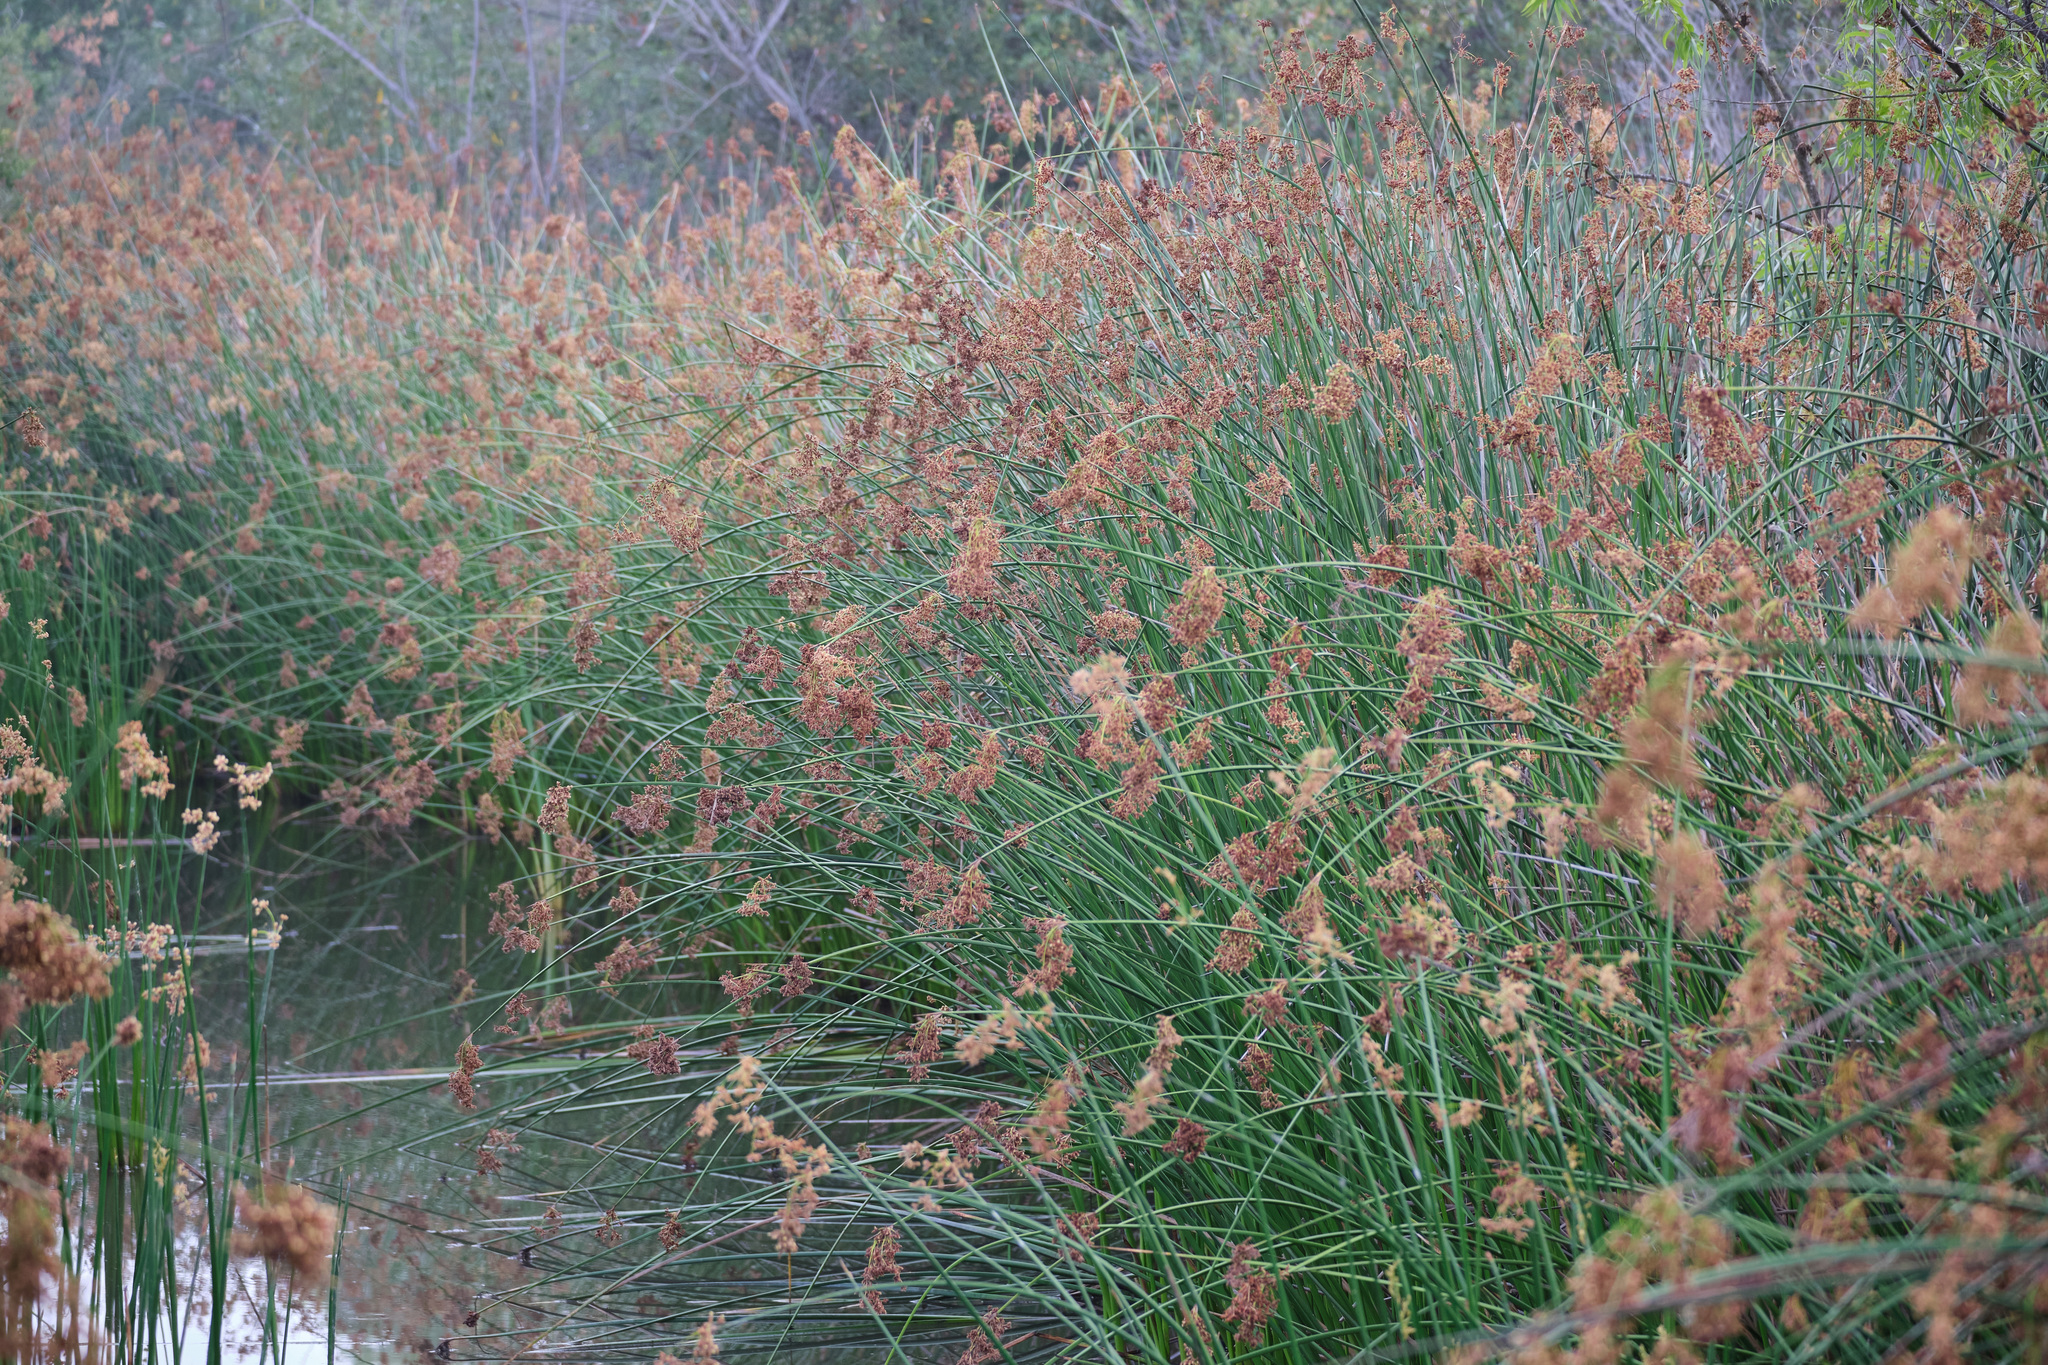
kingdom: Plantae
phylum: Tracheophyta
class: Liliopsida
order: Poales
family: Cyperaceae
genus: Schoenoplectus
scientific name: Schoenoplectus californicus
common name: California bulrush
